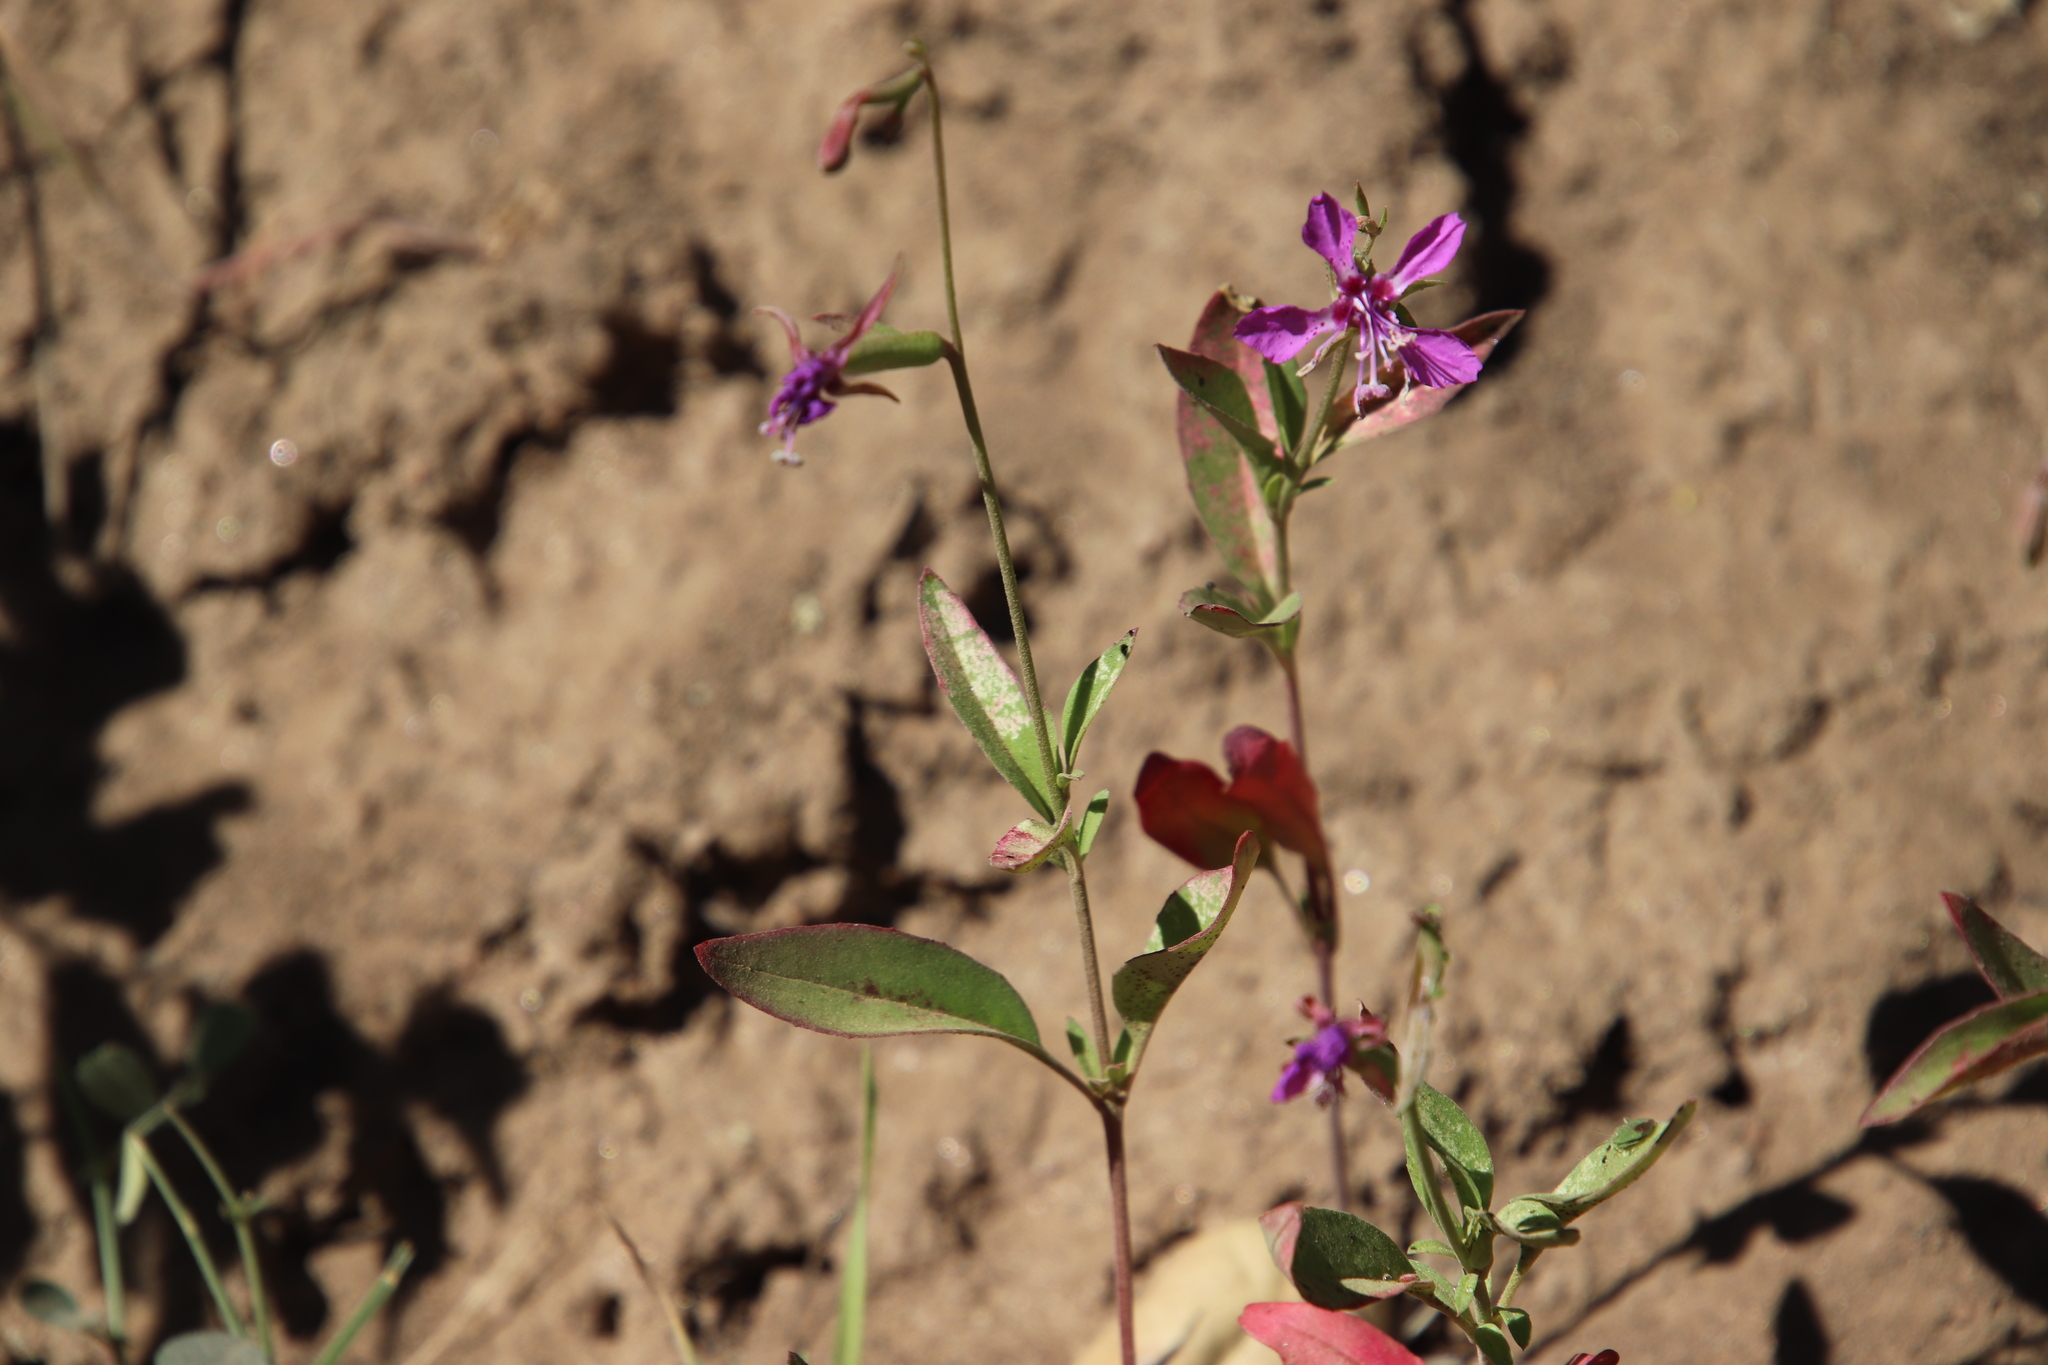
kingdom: Plantae
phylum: Tracheophyta
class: Magnoliopsida
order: Myrtales
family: Onagraceae
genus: Clarkia
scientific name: Clarkia rhomboidea
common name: Broadleaf clarkia
